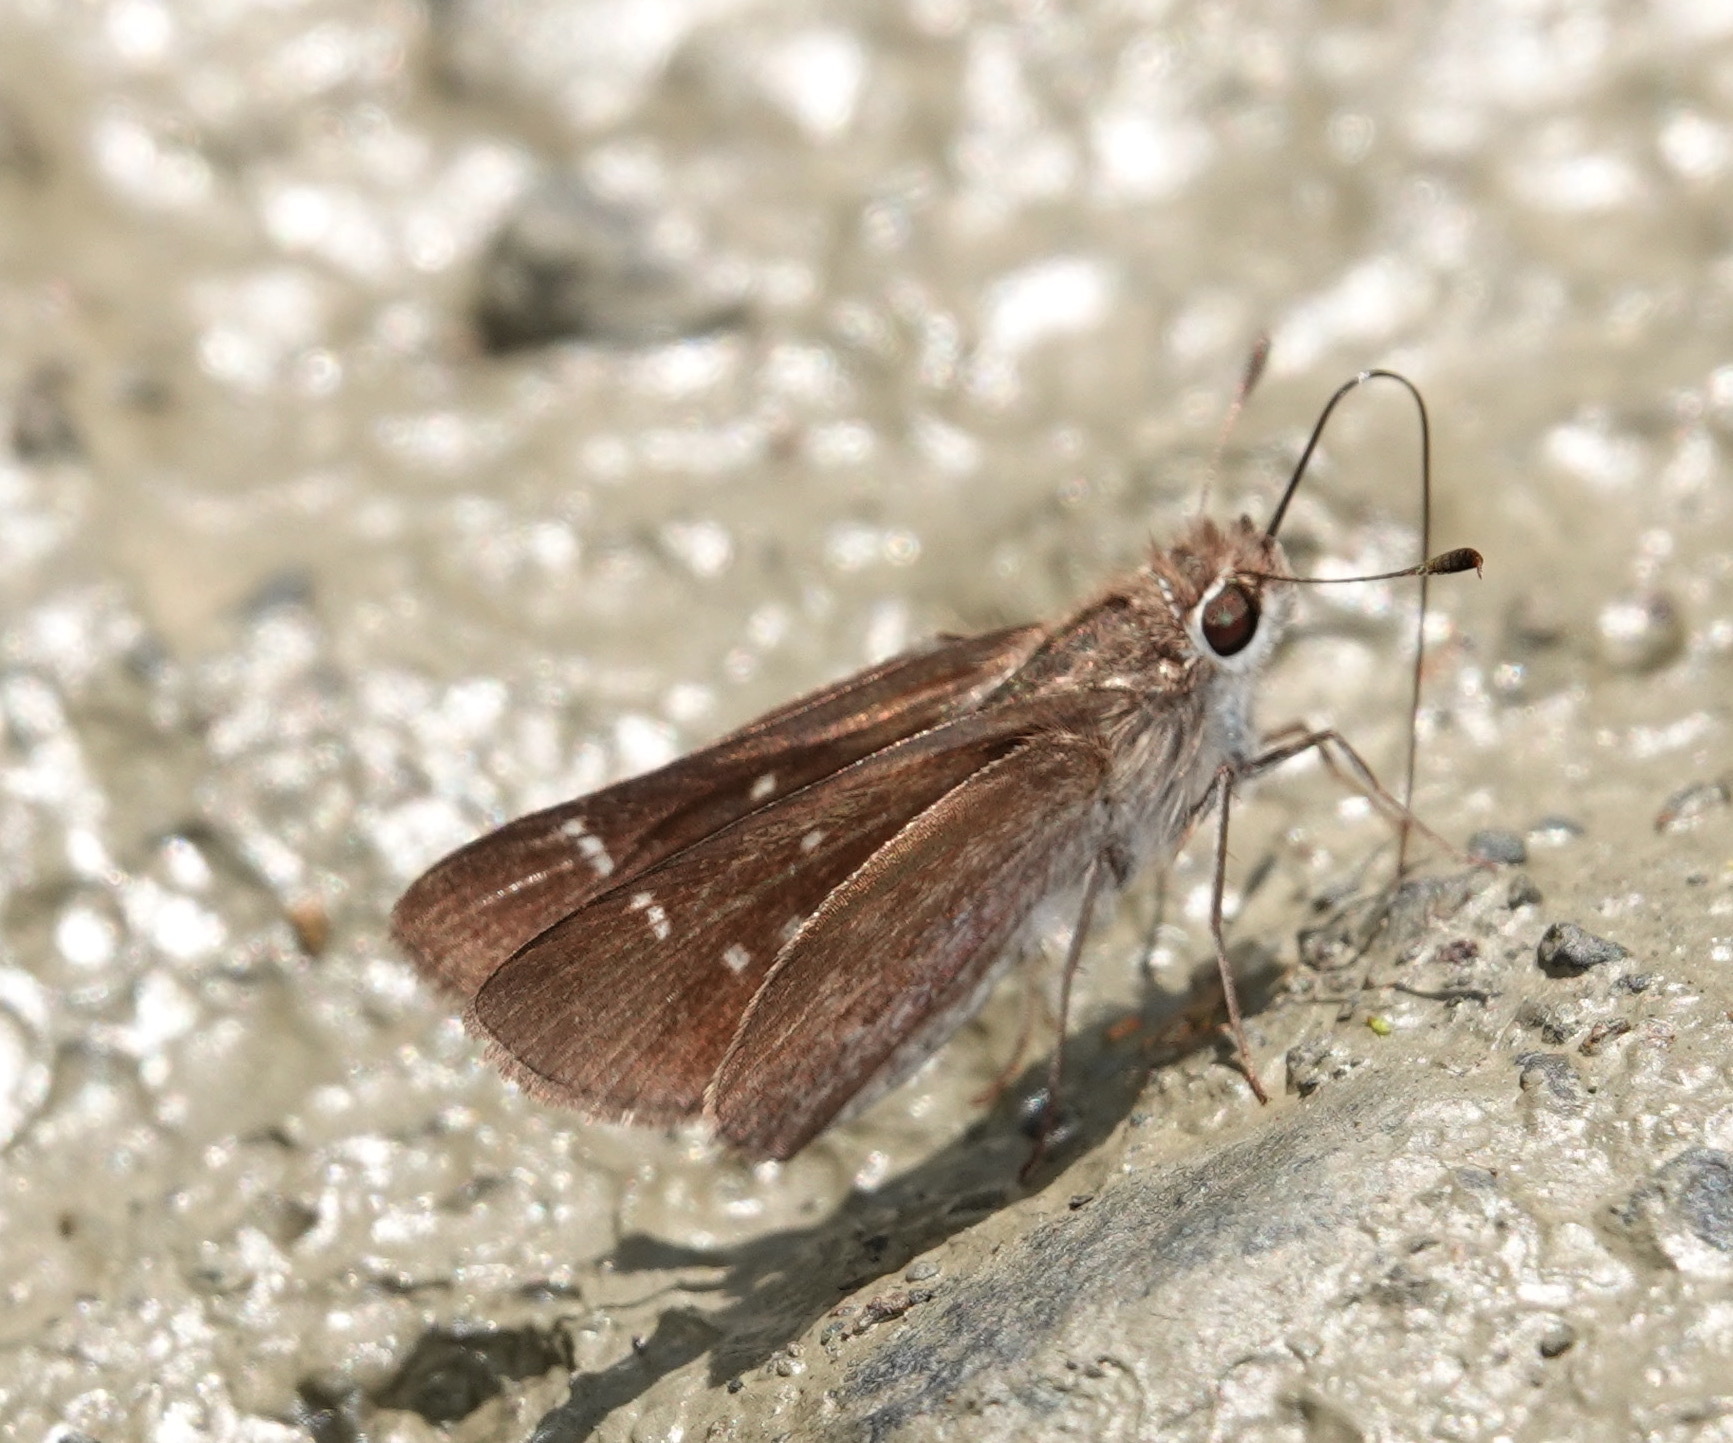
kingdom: Animalia
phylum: Arthropoda
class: Insecta
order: Lepidoptera
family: Hesperiidae
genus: Lerodea
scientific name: Lerodea xenos
